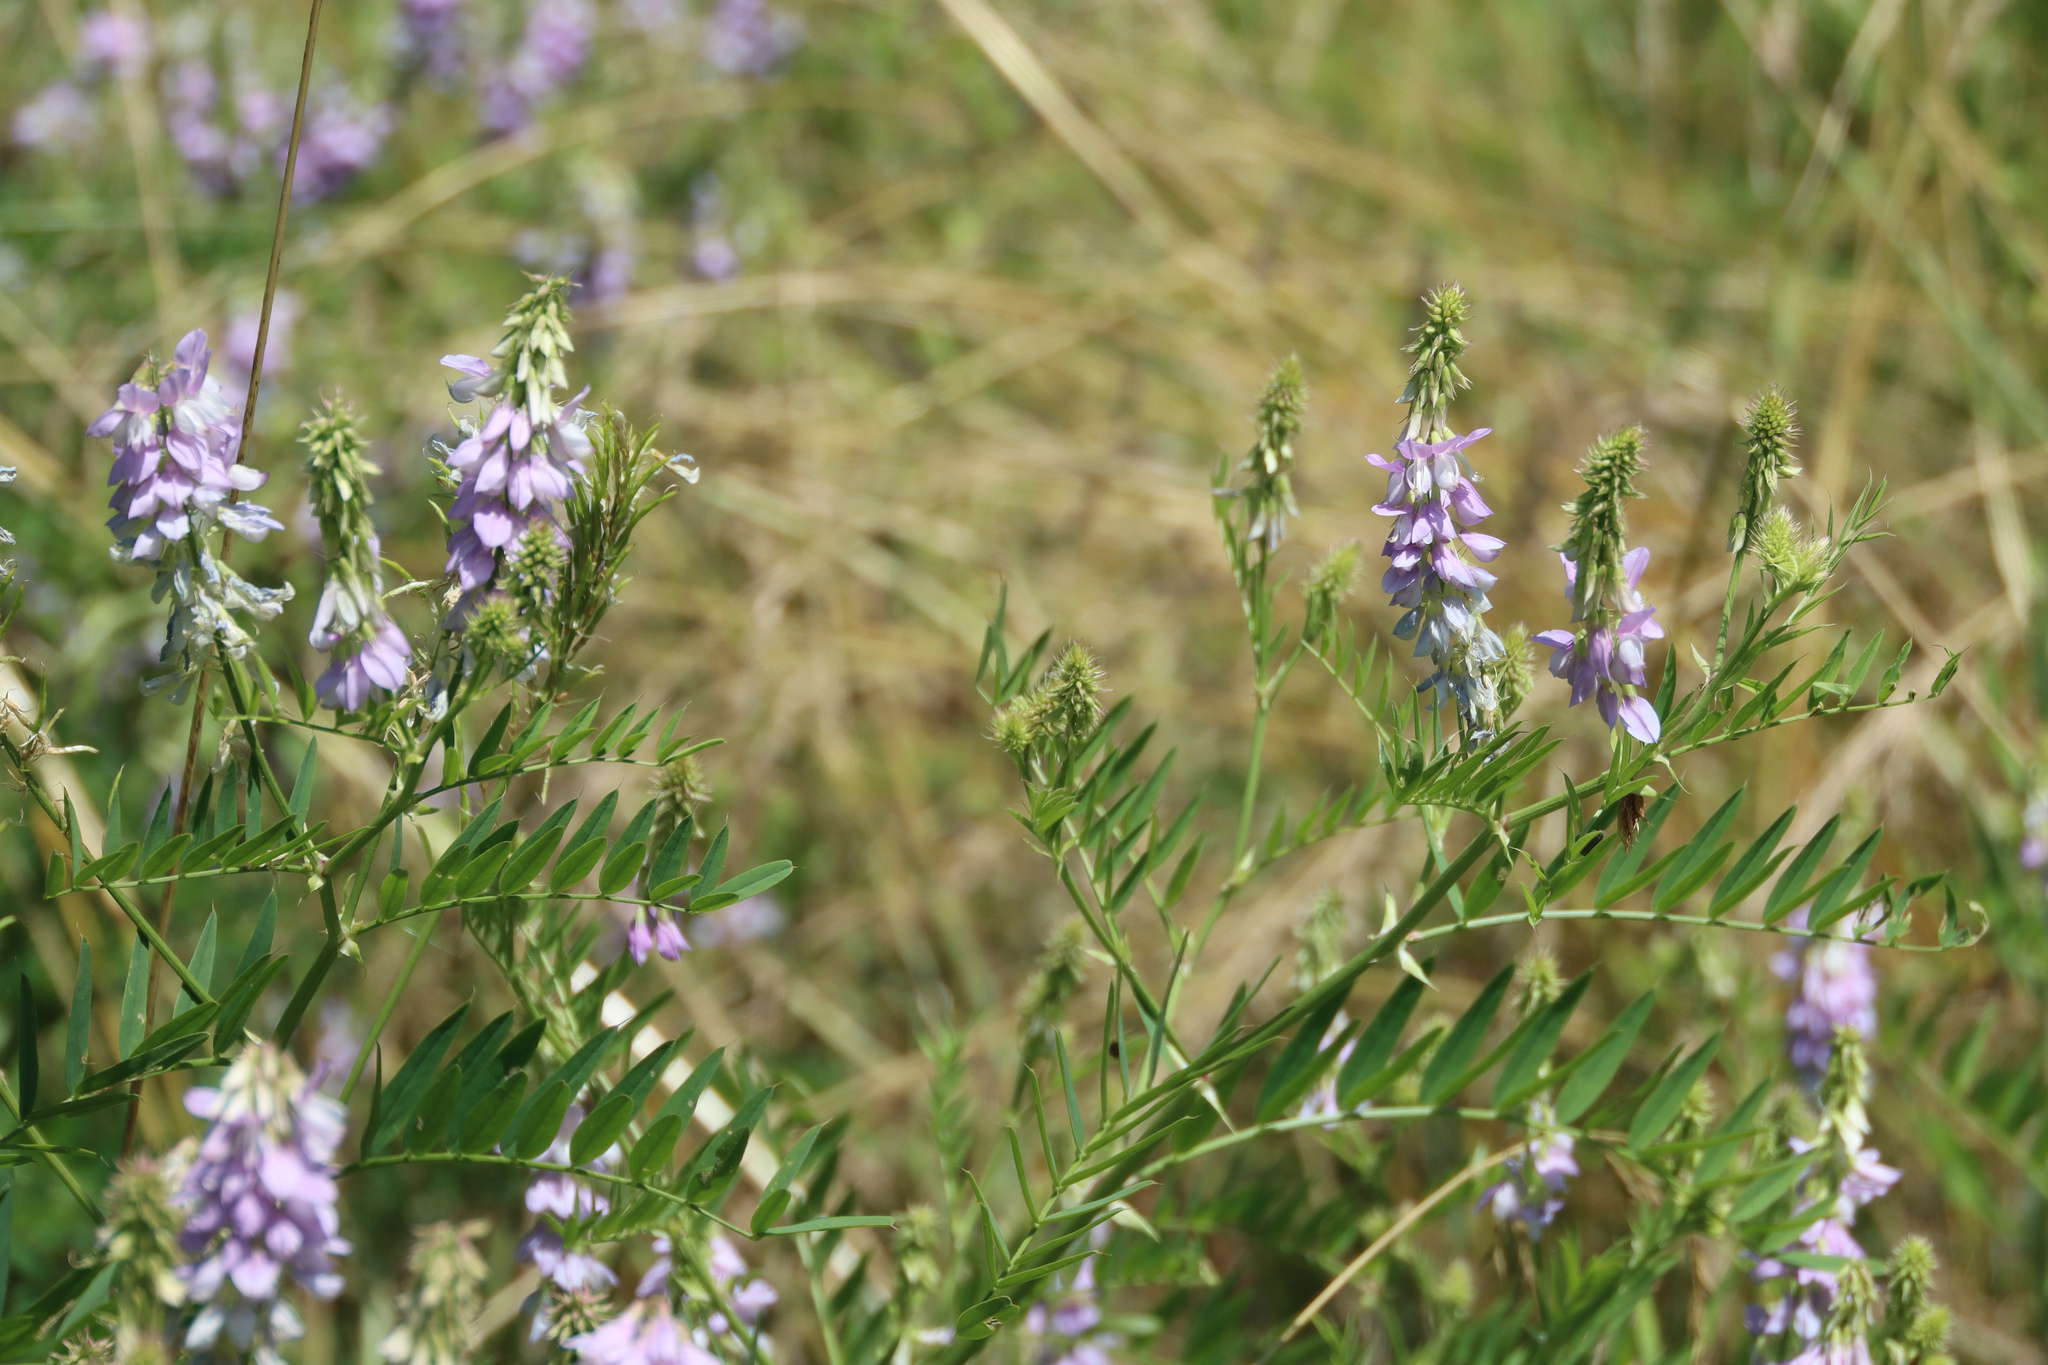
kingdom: Plantae
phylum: Tracheophyta
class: Magnoliopsida
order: Fabales
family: Fabaceae
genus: Galega
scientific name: Galega officinalis
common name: Goat's-rue
